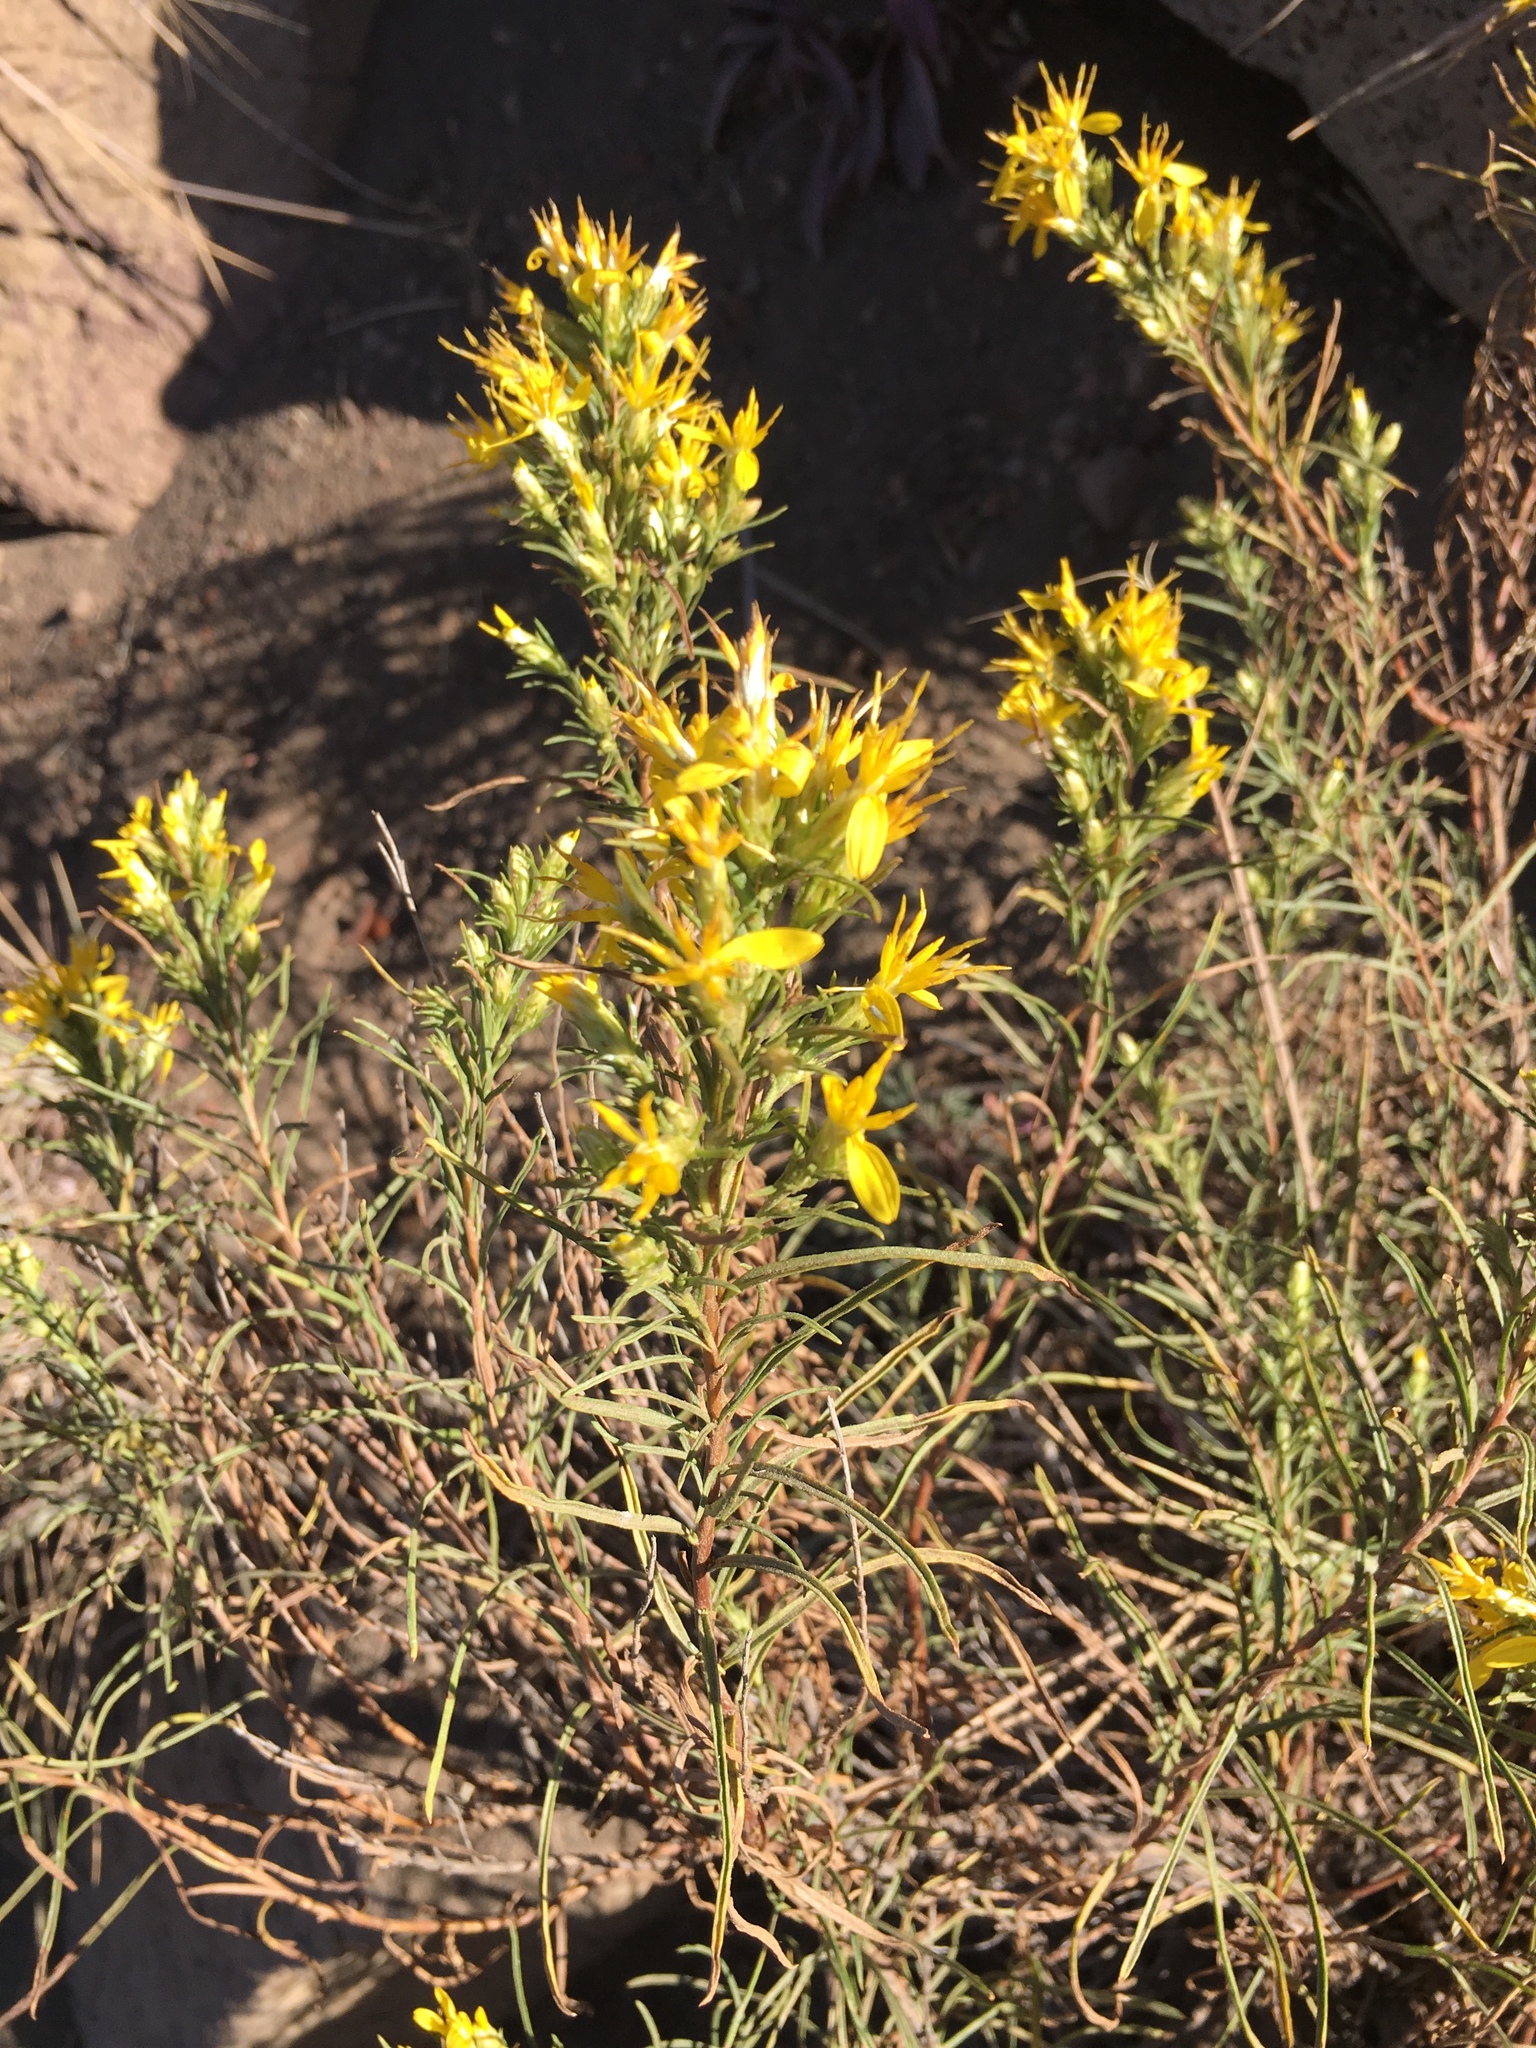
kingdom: Plantae
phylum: Tracheophyta
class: Magnoliopsida
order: Asterales
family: Asteraceae
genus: Ericameria
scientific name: Ericameria nauseosa
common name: Rubber rabbitbrush
